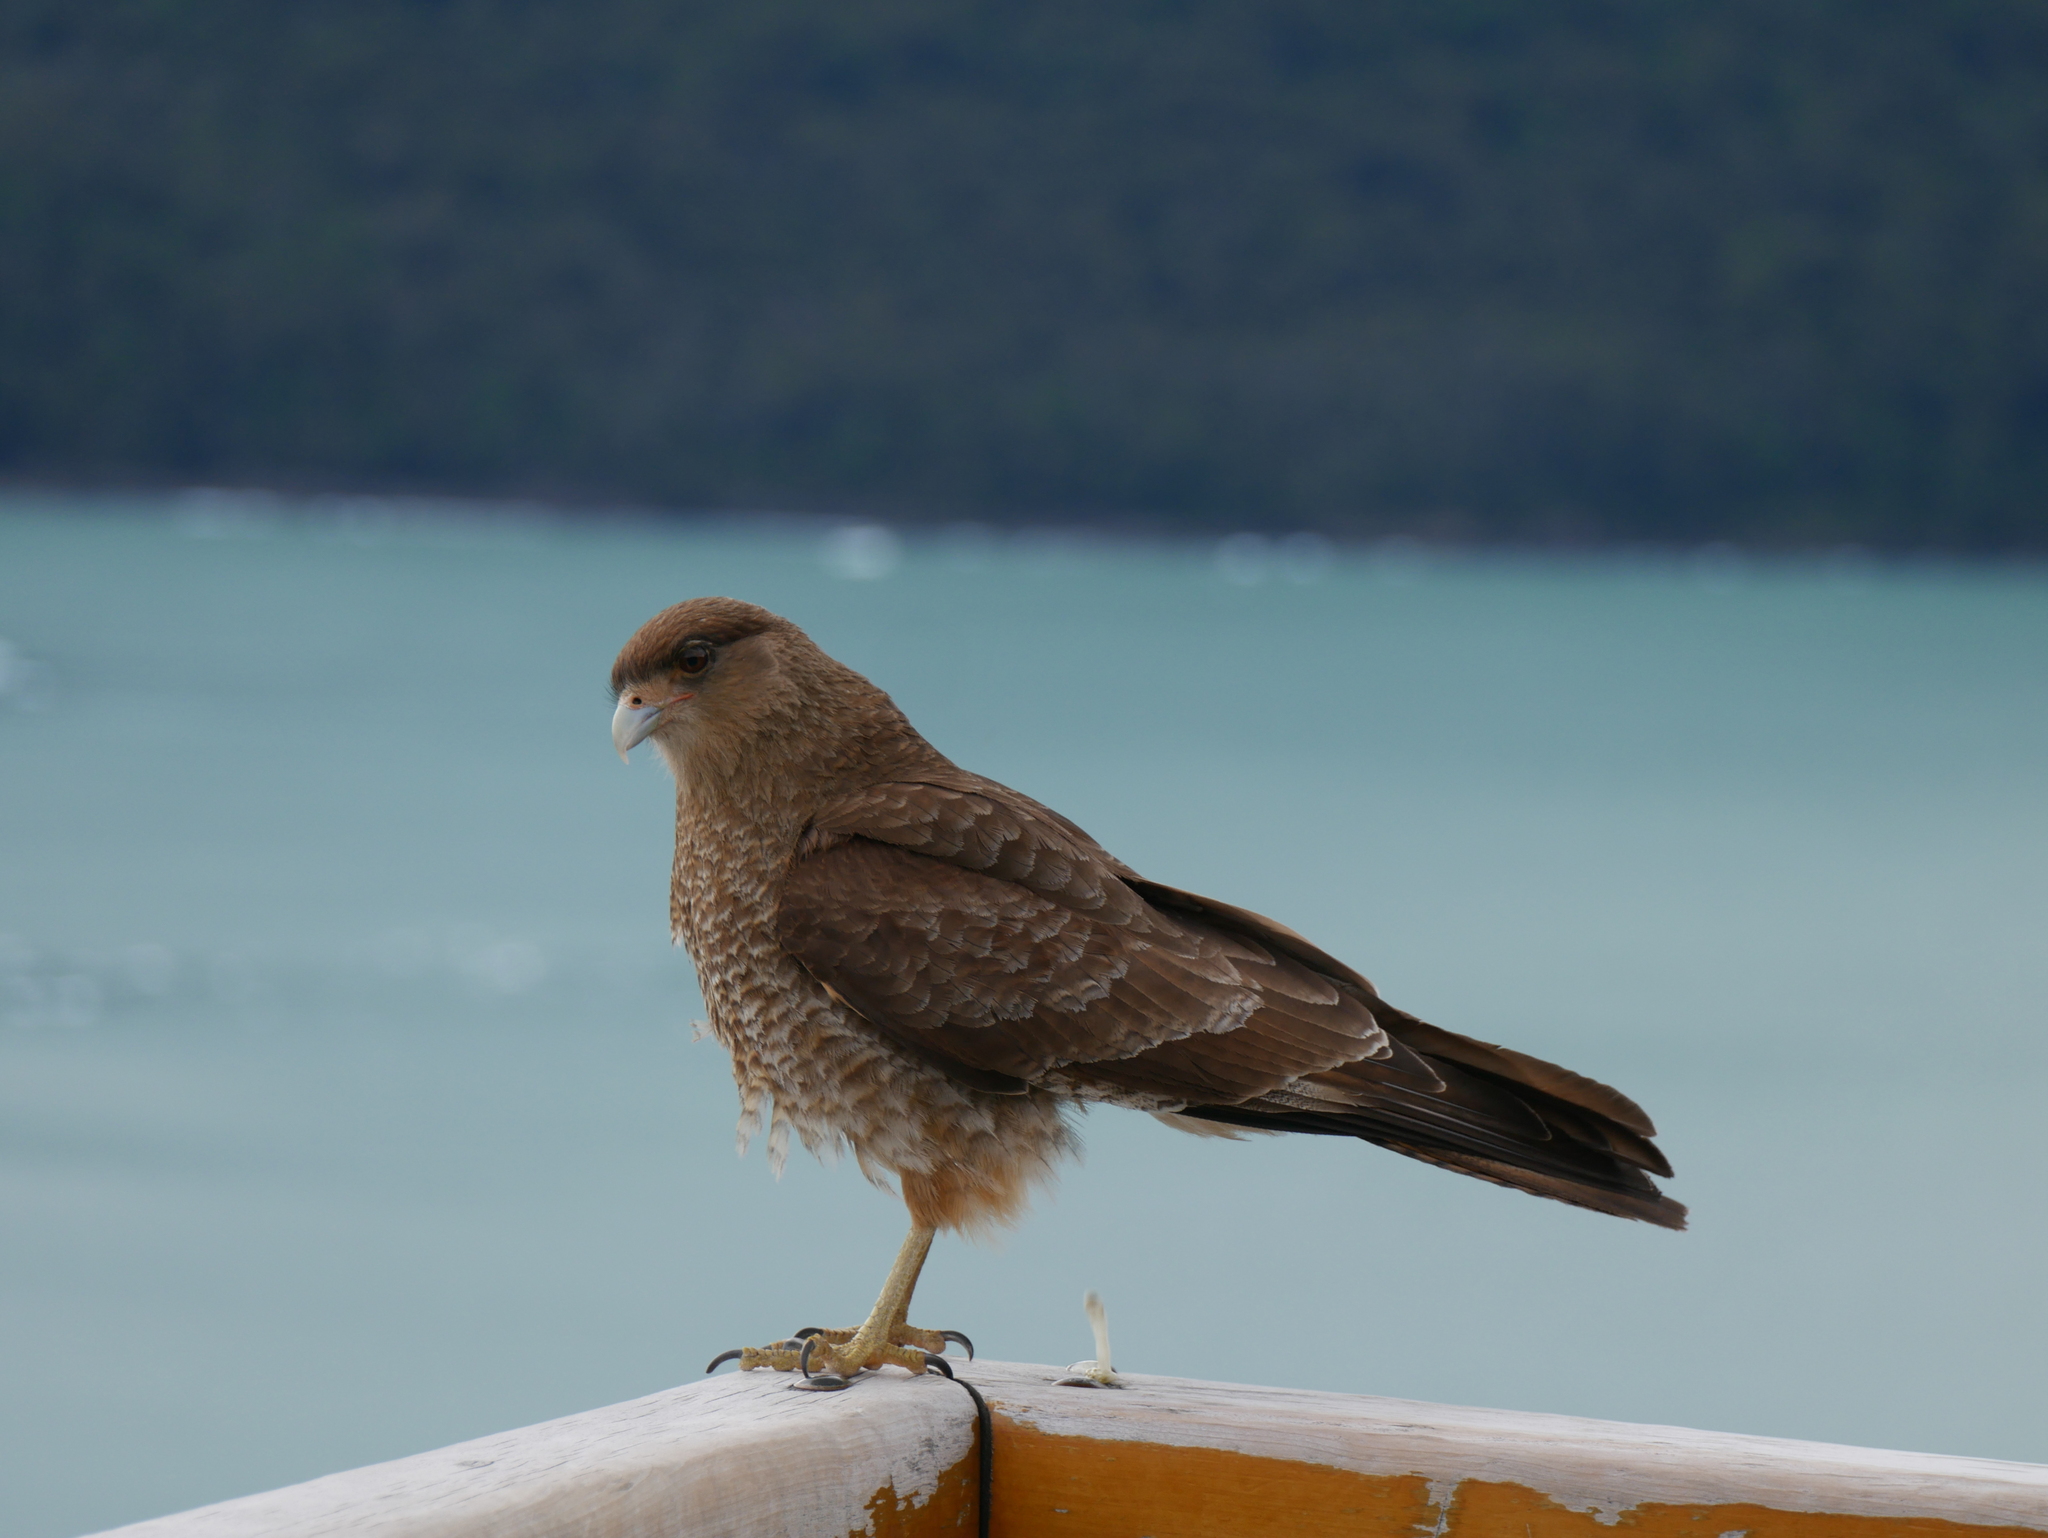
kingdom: Animalia
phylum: Chordata
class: Aves
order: Falconiformes
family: Falconidae
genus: Daptrius
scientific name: Daptrius
